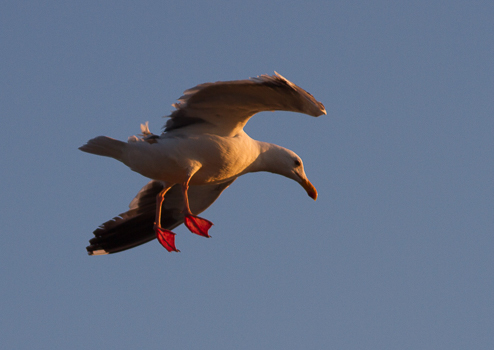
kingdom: Animalia
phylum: Chordata
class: Aves
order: Charadriiformes
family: Laridae
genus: Larus
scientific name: Larus occidentalis
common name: Western gull
